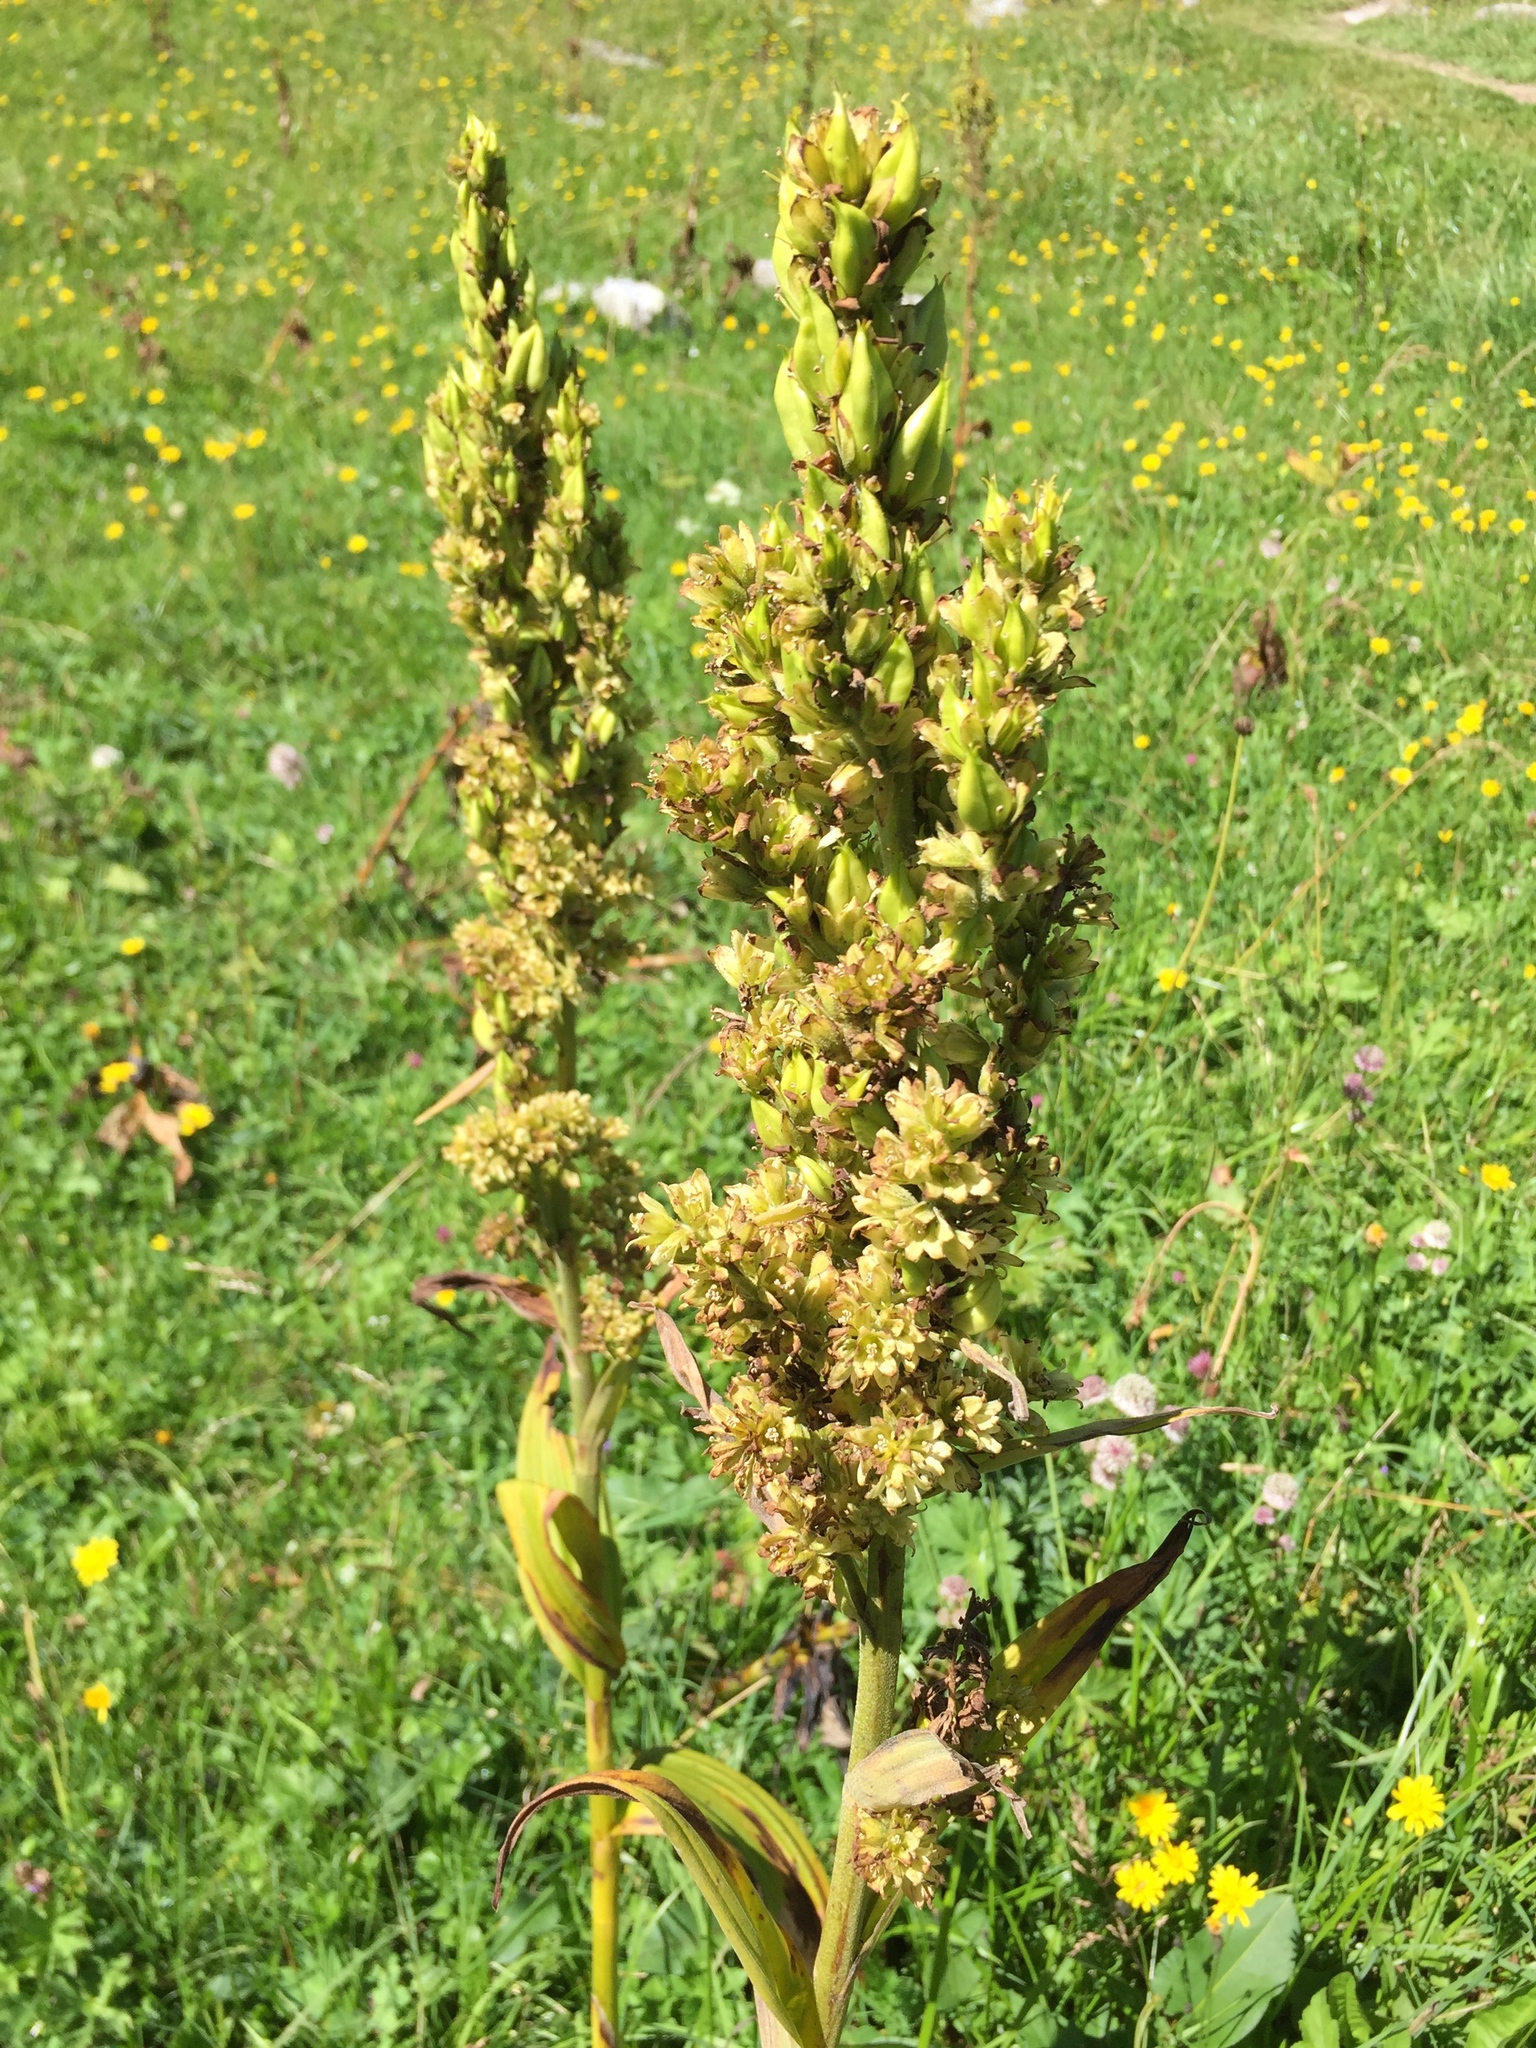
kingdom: Plantae
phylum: Tracheophyta
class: Liliopsida
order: Liliales
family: Melanthiaceae
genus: Veratrum
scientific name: Veratrum album
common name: White veratrum
